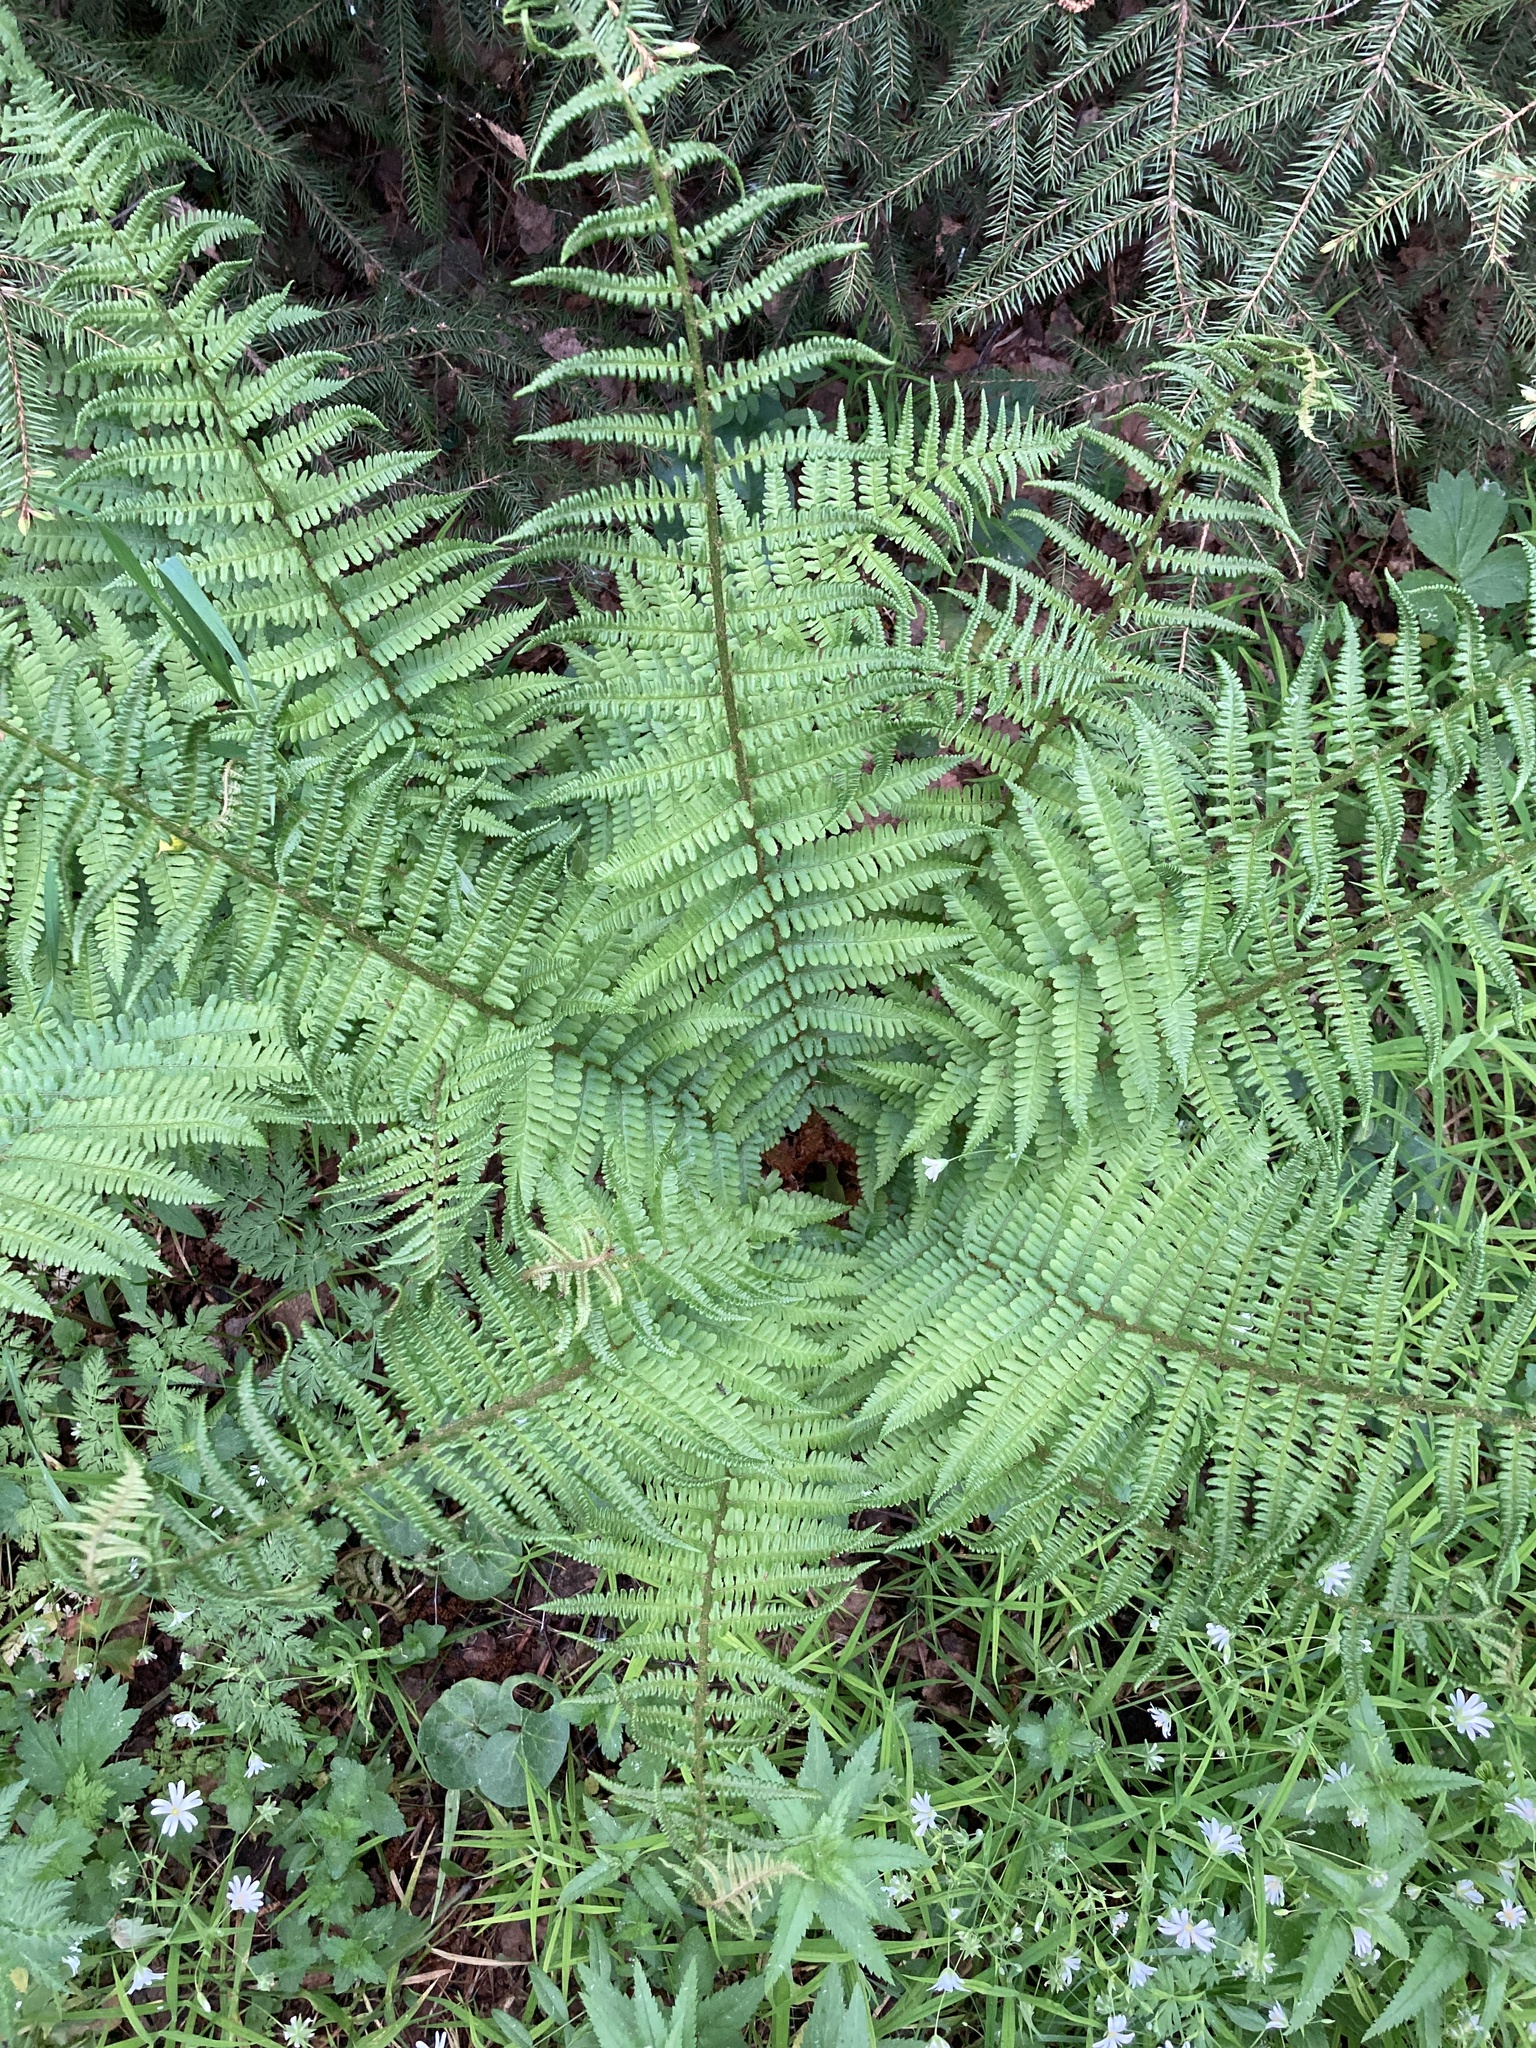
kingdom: Plantae
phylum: Tracheophyta
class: Polypodiopsida
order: Polypodiales
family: Dryopteridaceae
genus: Dryopteris
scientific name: Dryopteris filix-mas
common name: Male fern
